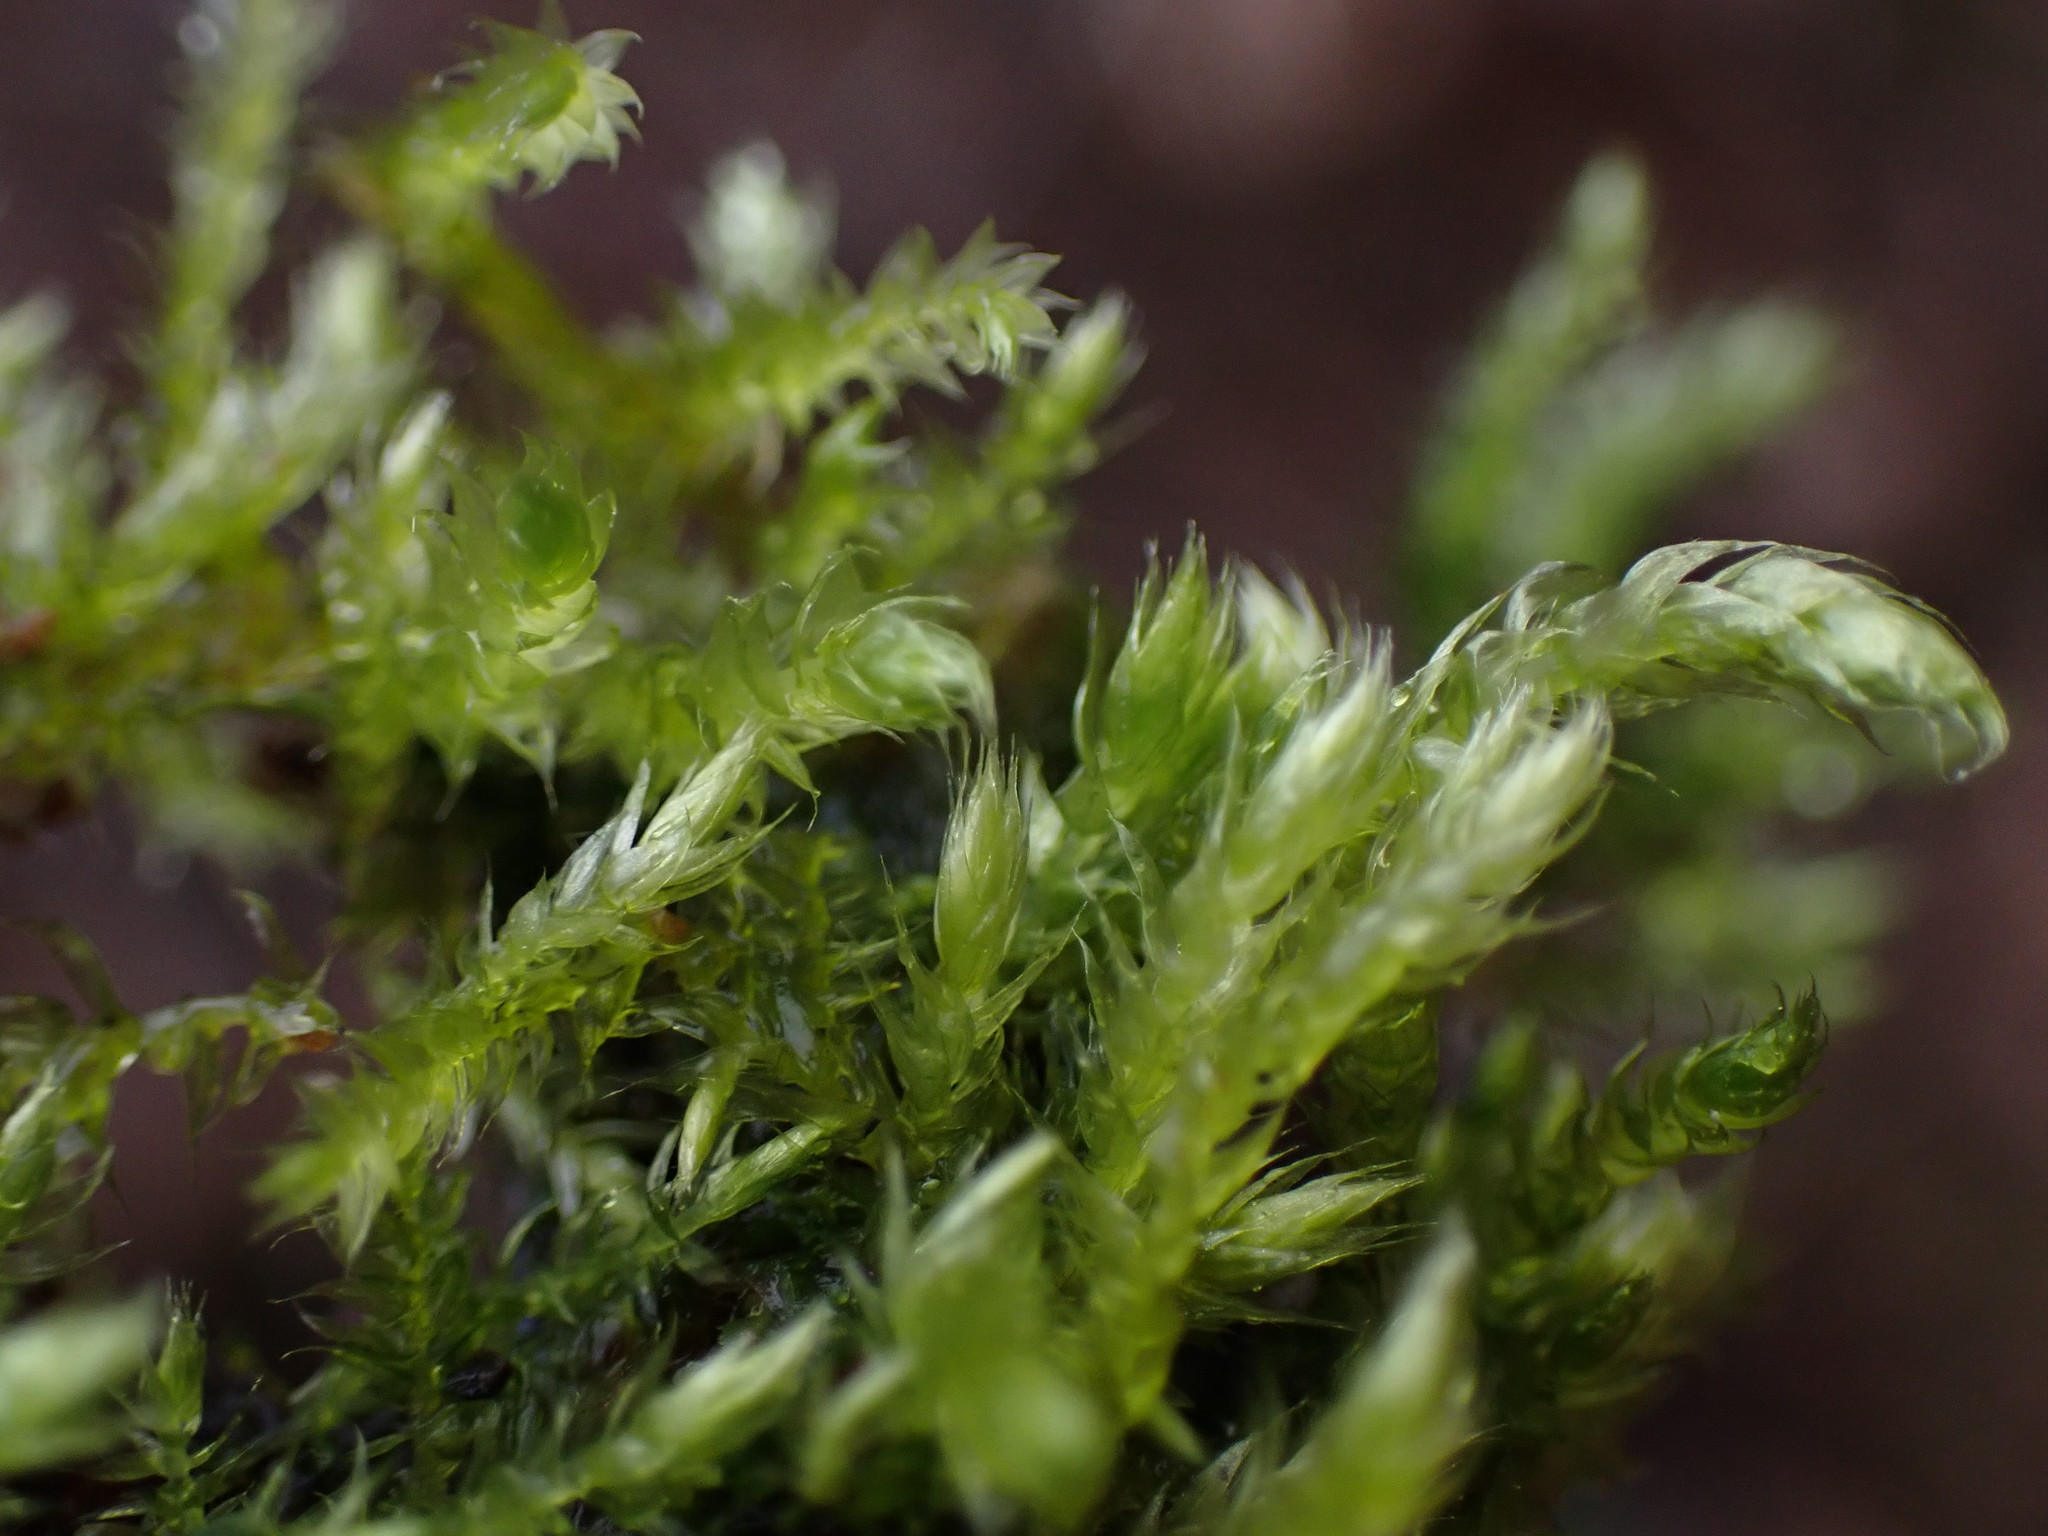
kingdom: Plantae
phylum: Bryophyta
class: Bryopsida
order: Hypnales
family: Brachytheciaceae
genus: Sciuro-hypnum
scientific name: Sciuro-hypnum hylotapetum
